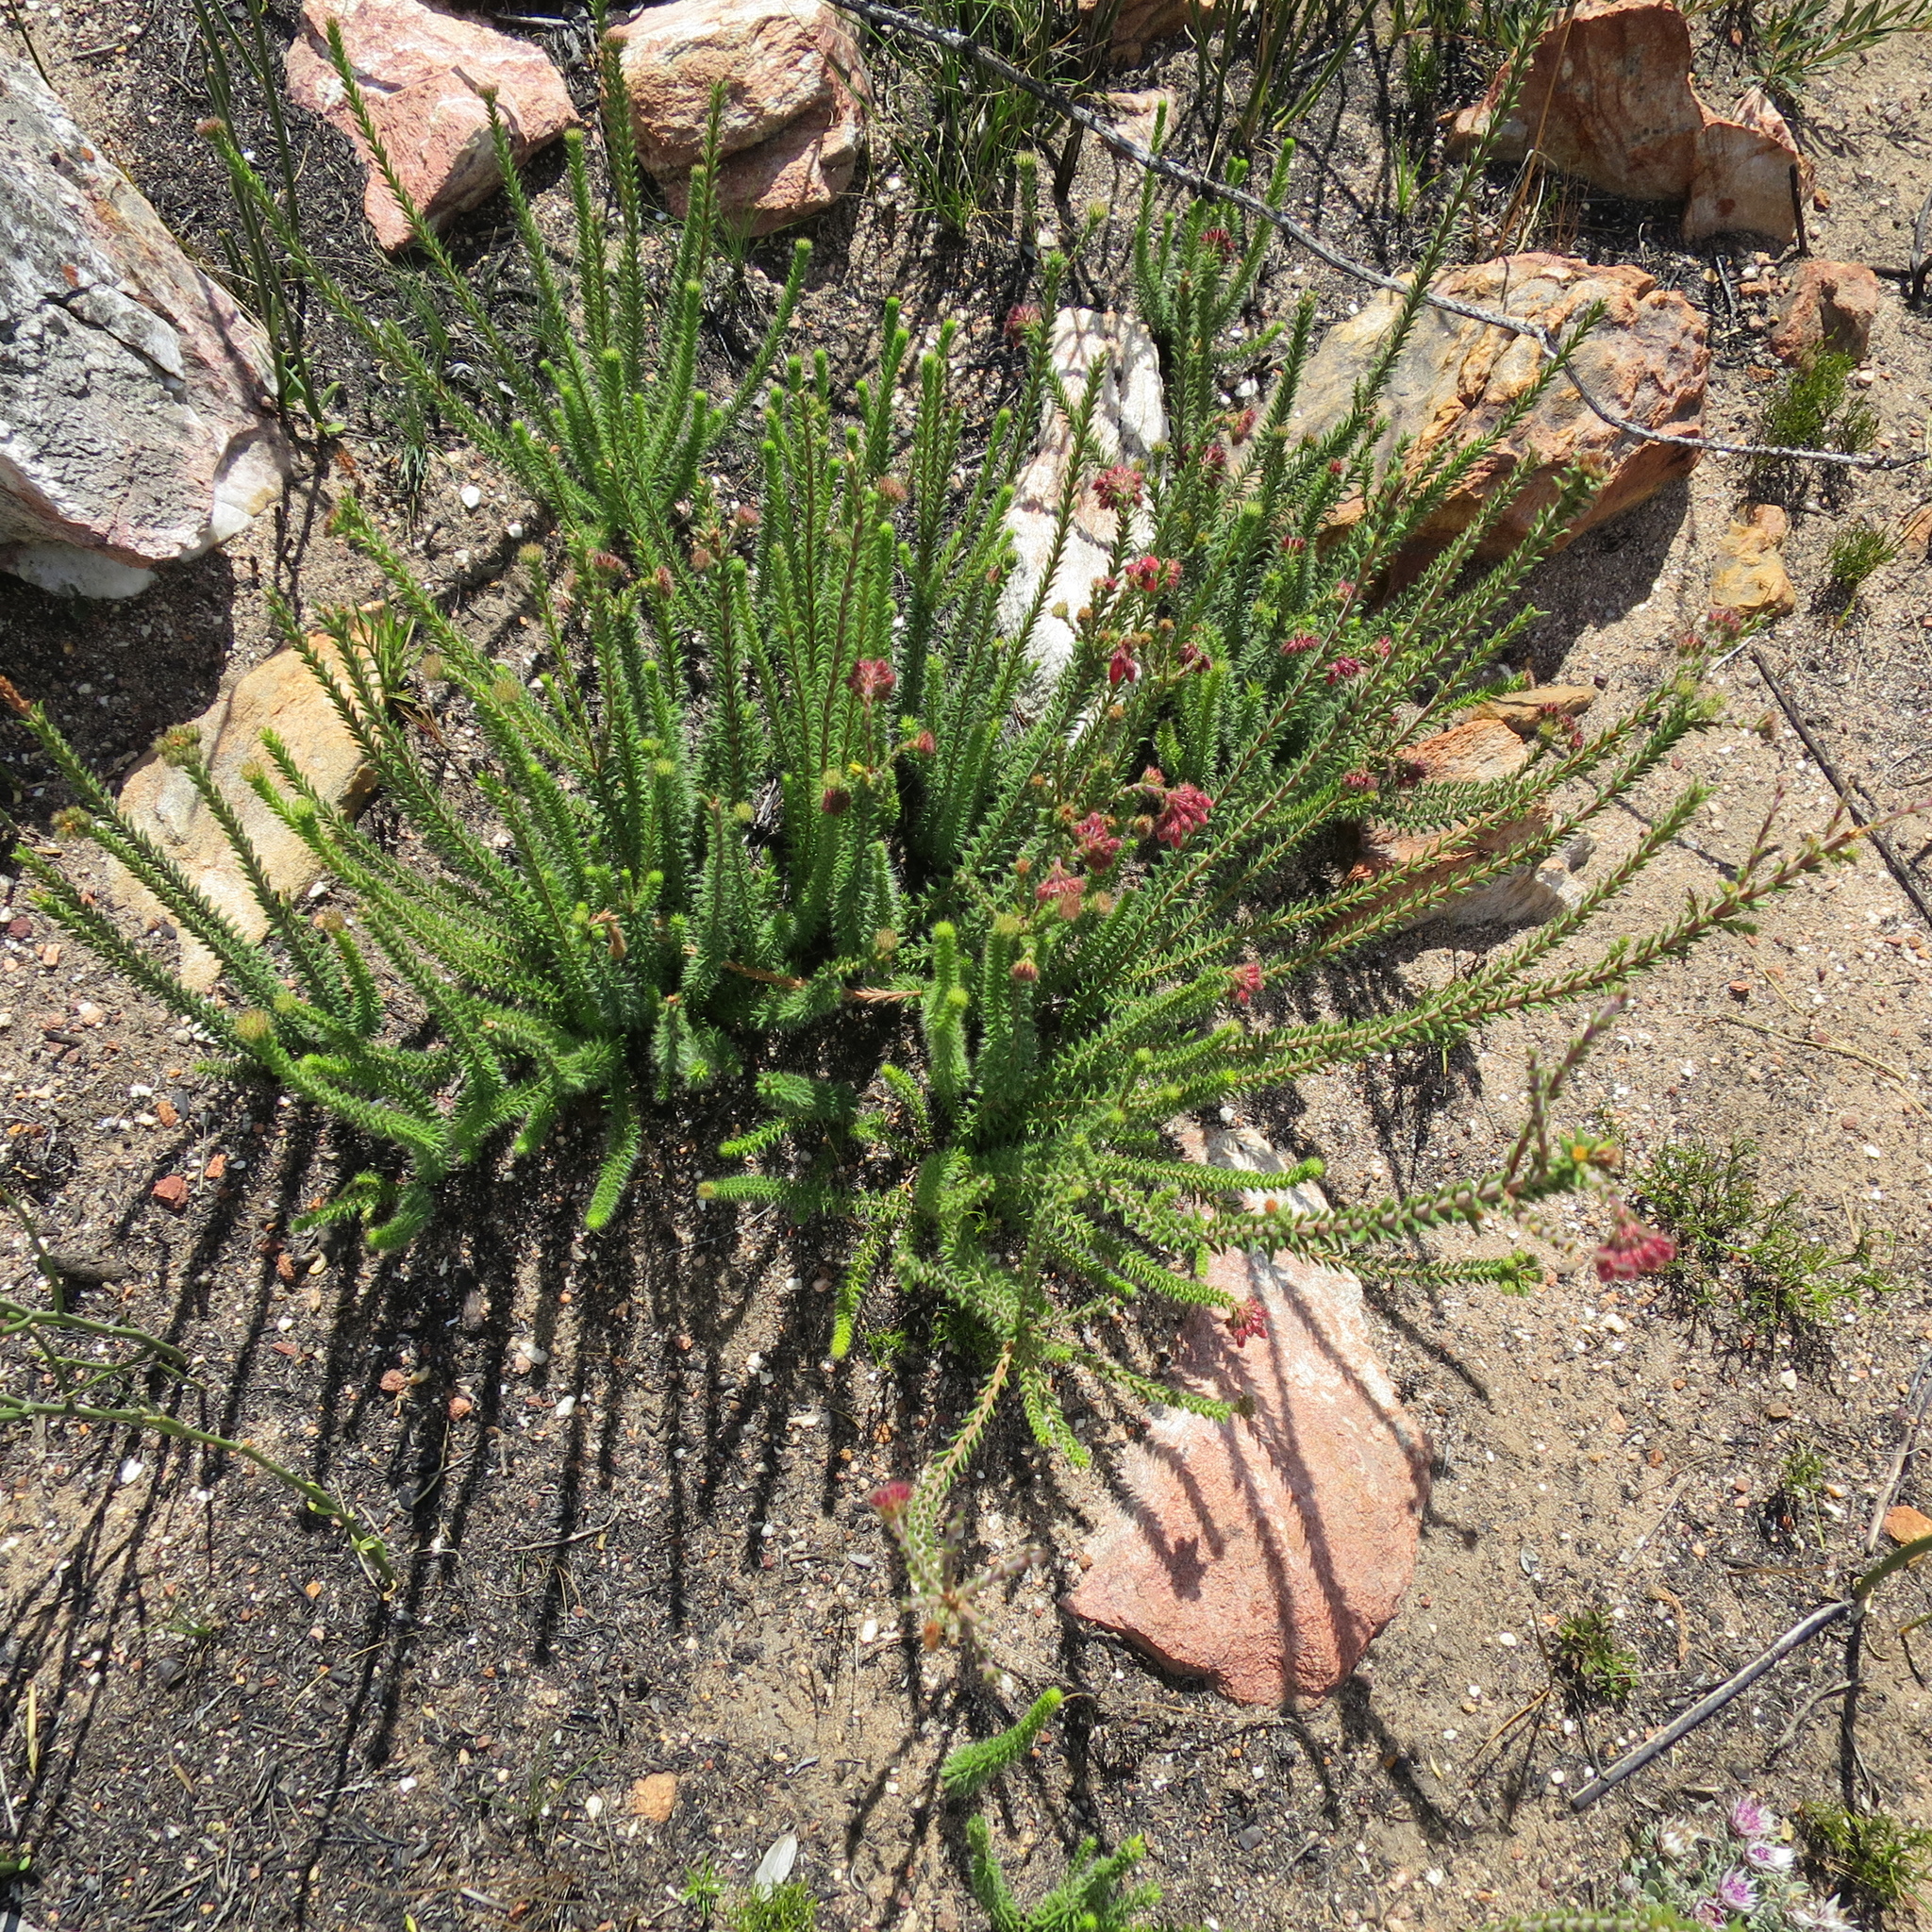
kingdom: Plantae
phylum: Tracheophyta
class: Magnoliopsida
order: Ericales
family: Ericaceae
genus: Erica
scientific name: Erica cerinthoides
